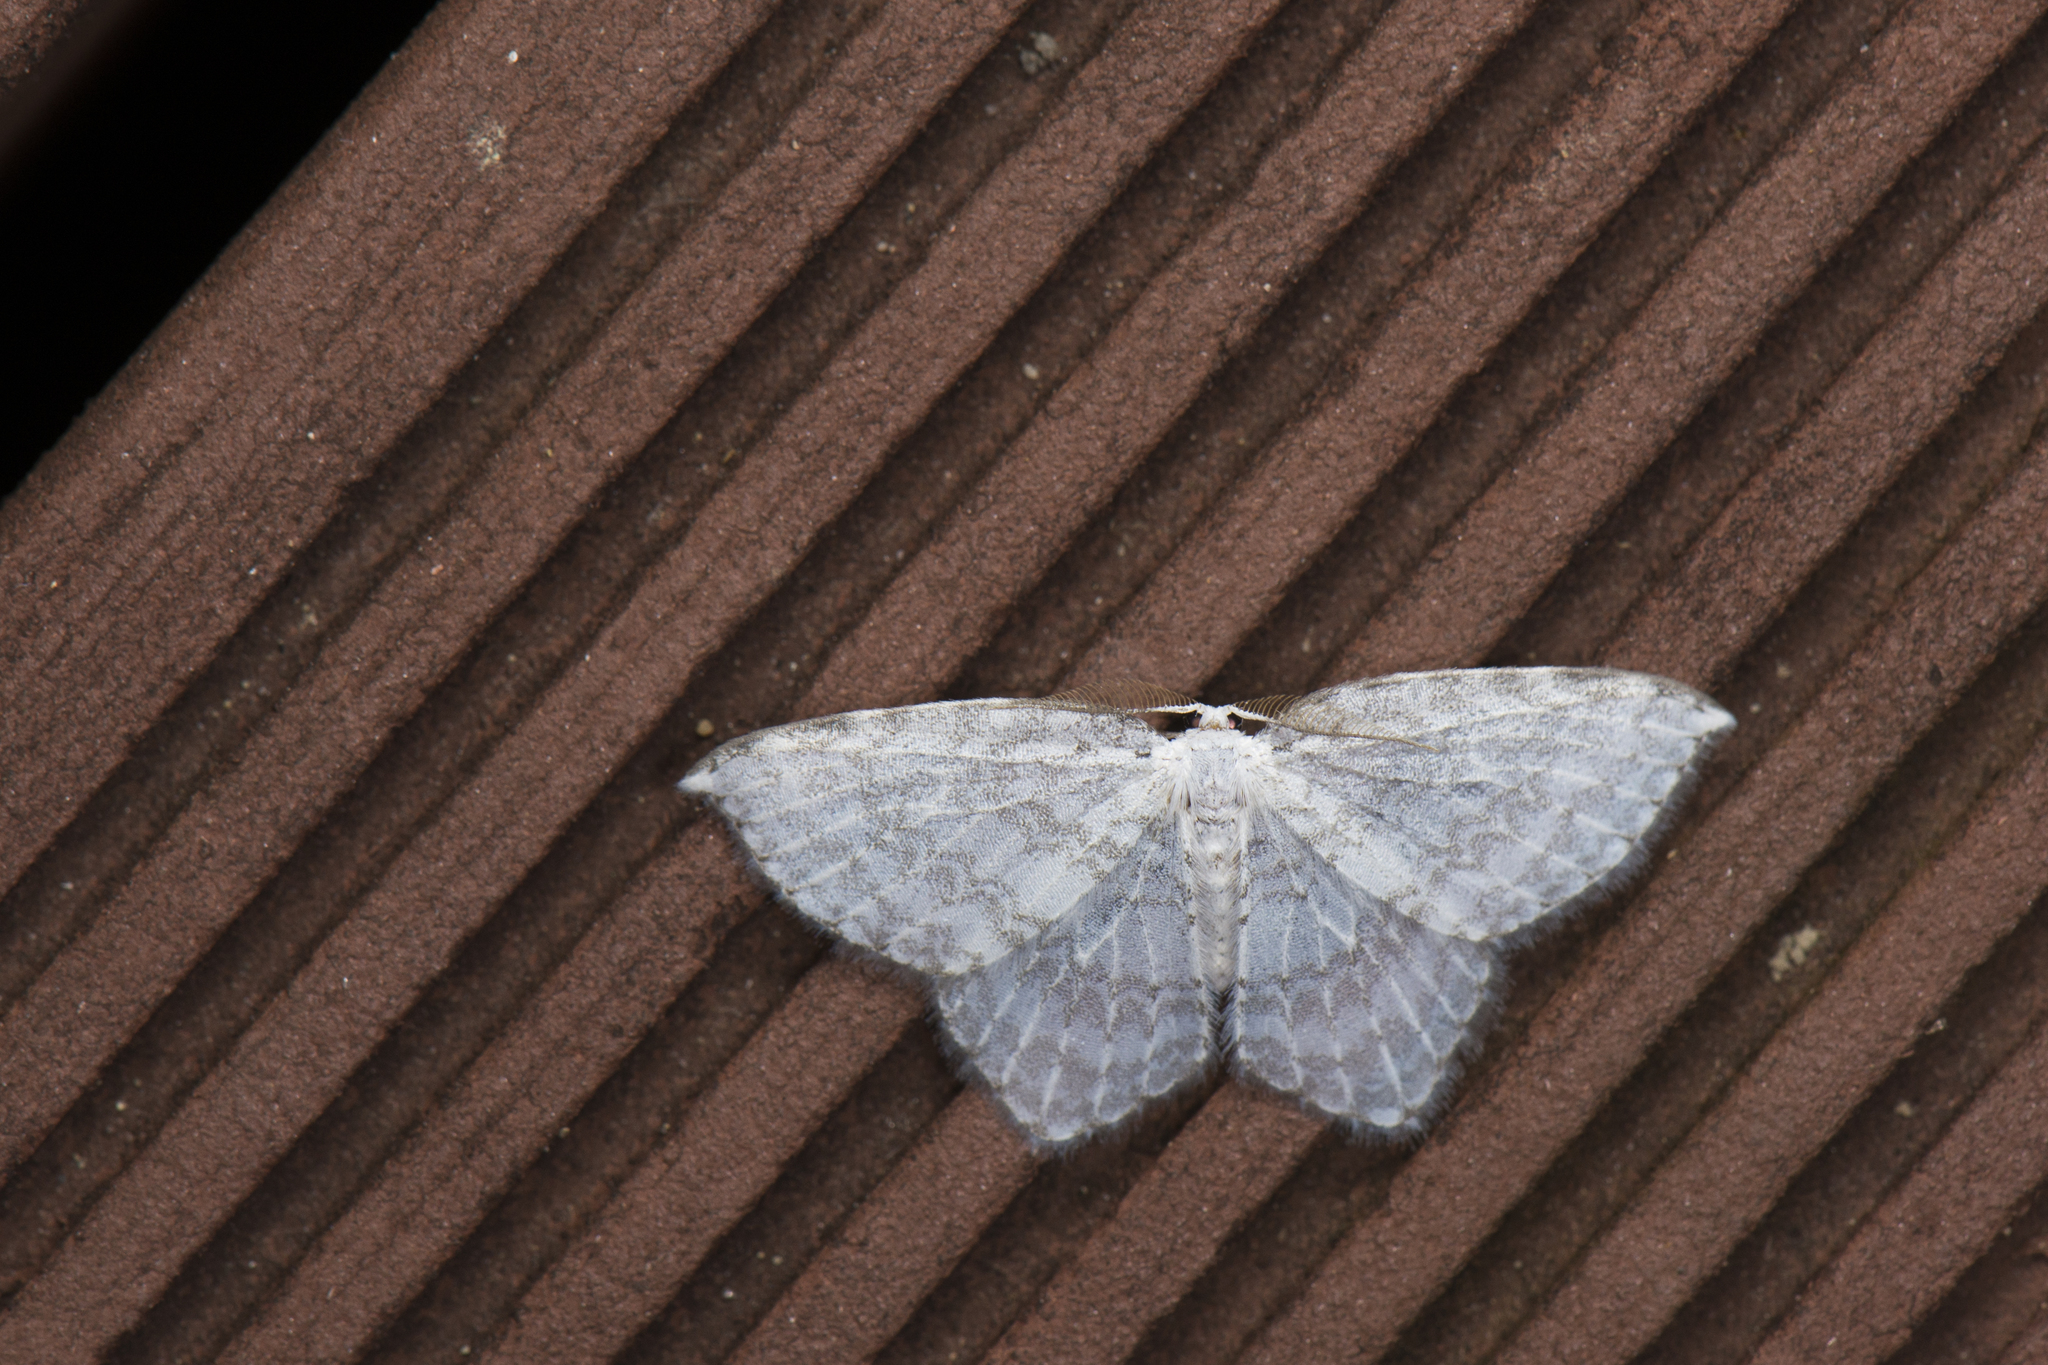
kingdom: Animalia
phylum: Arthropoda
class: Insecta
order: Lepidoptera
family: Drepanidae
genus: Ditrigona
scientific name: Ditrigona Leucodrepana serratilinea
